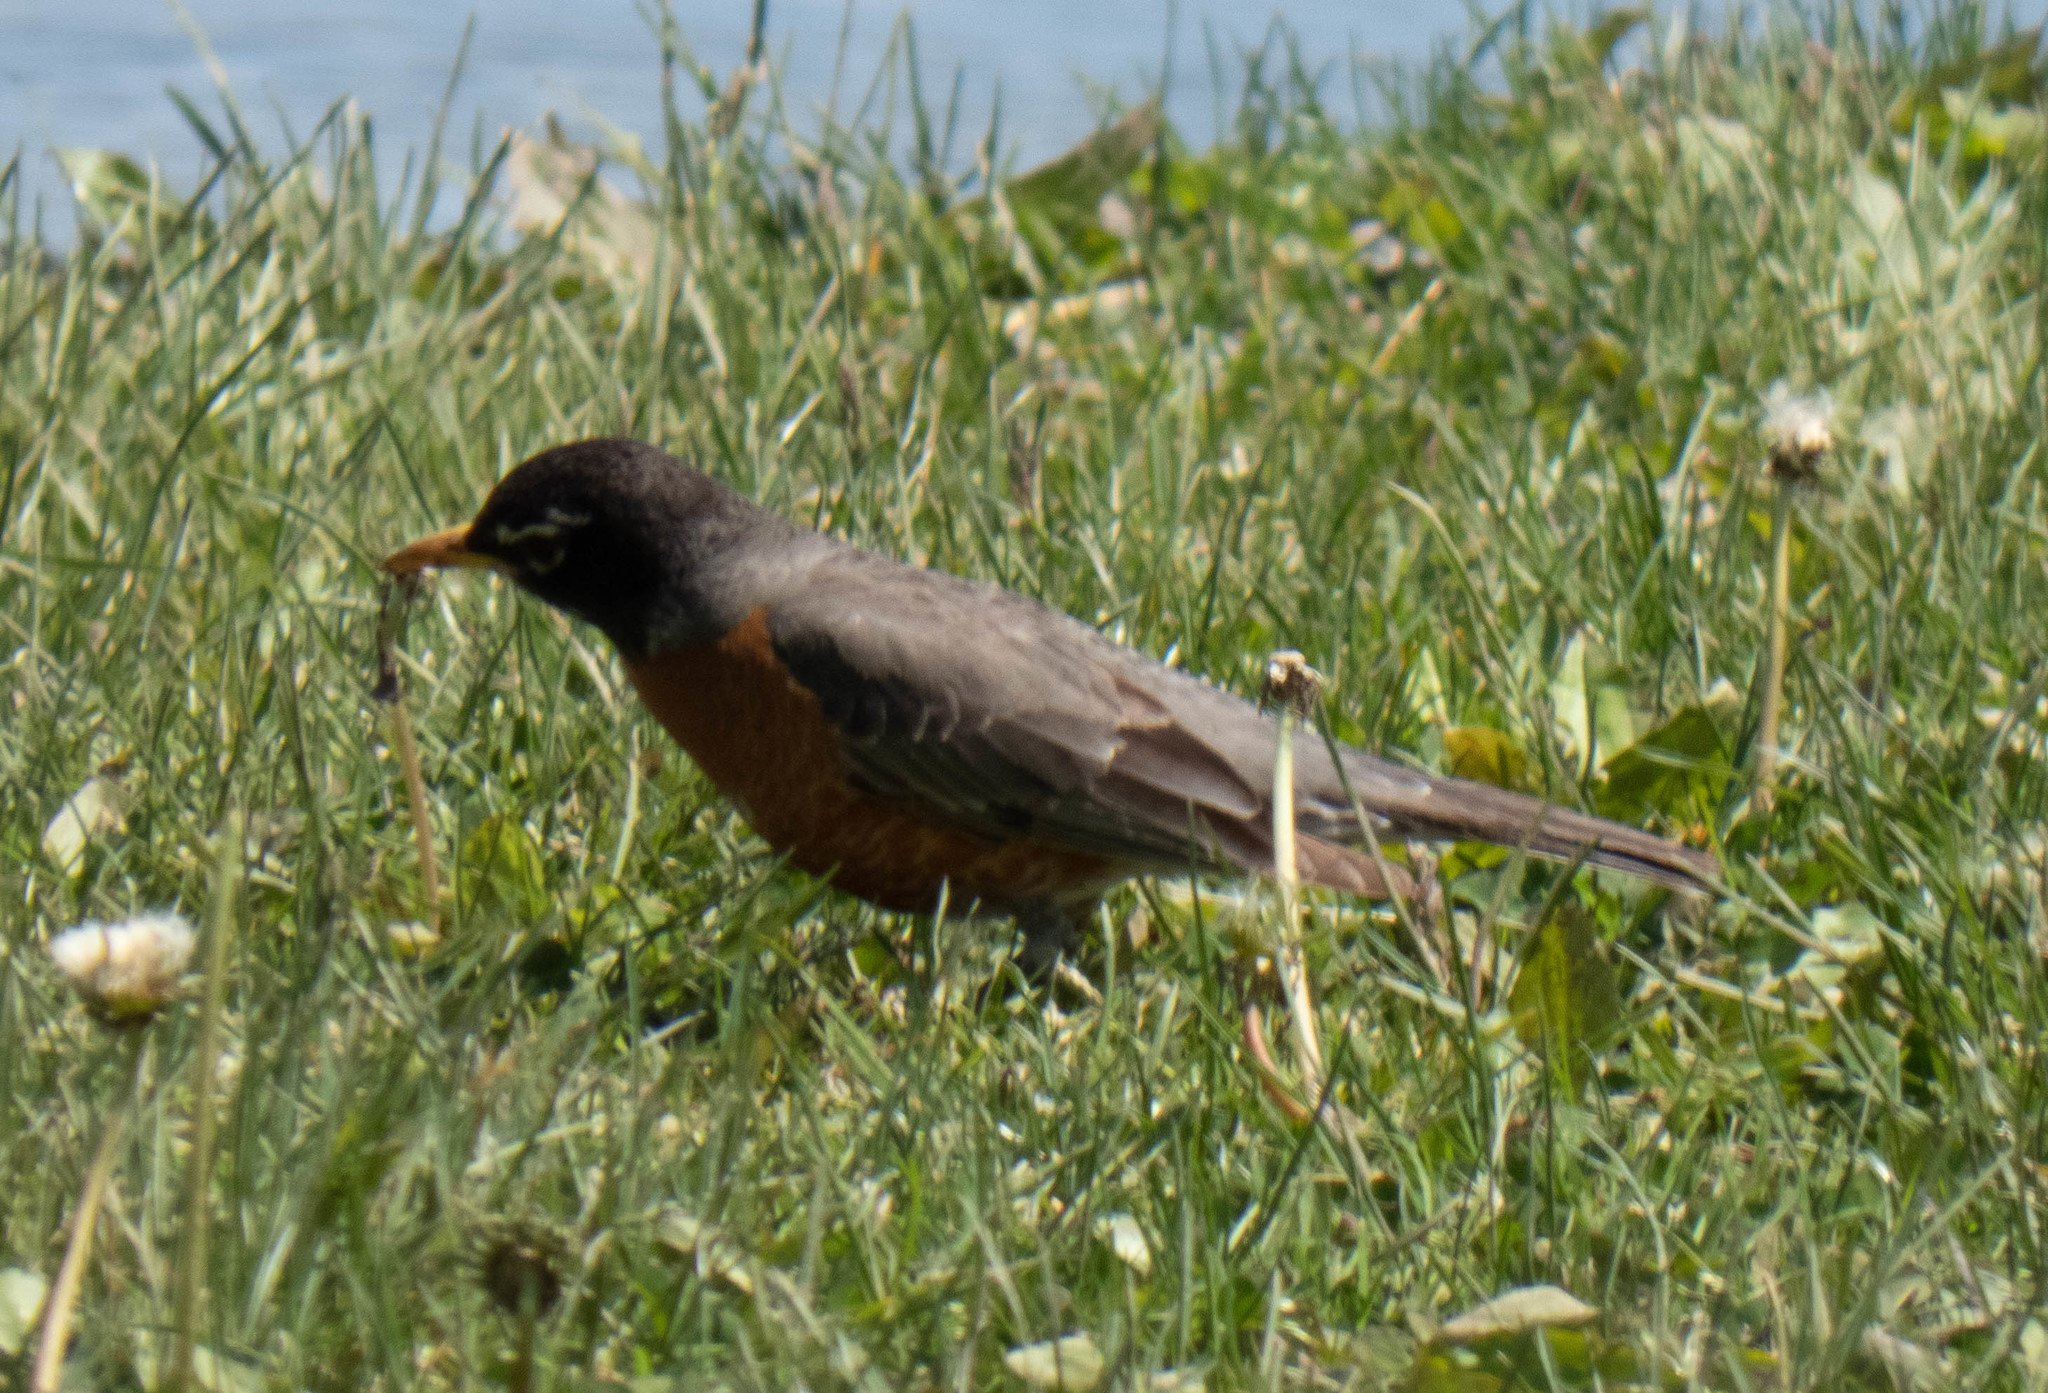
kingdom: Animalia
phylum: Chordata
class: Aves
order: Passeriformes
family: Turdidae
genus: Turdus
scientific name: Turdus migratorius
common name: American robin
